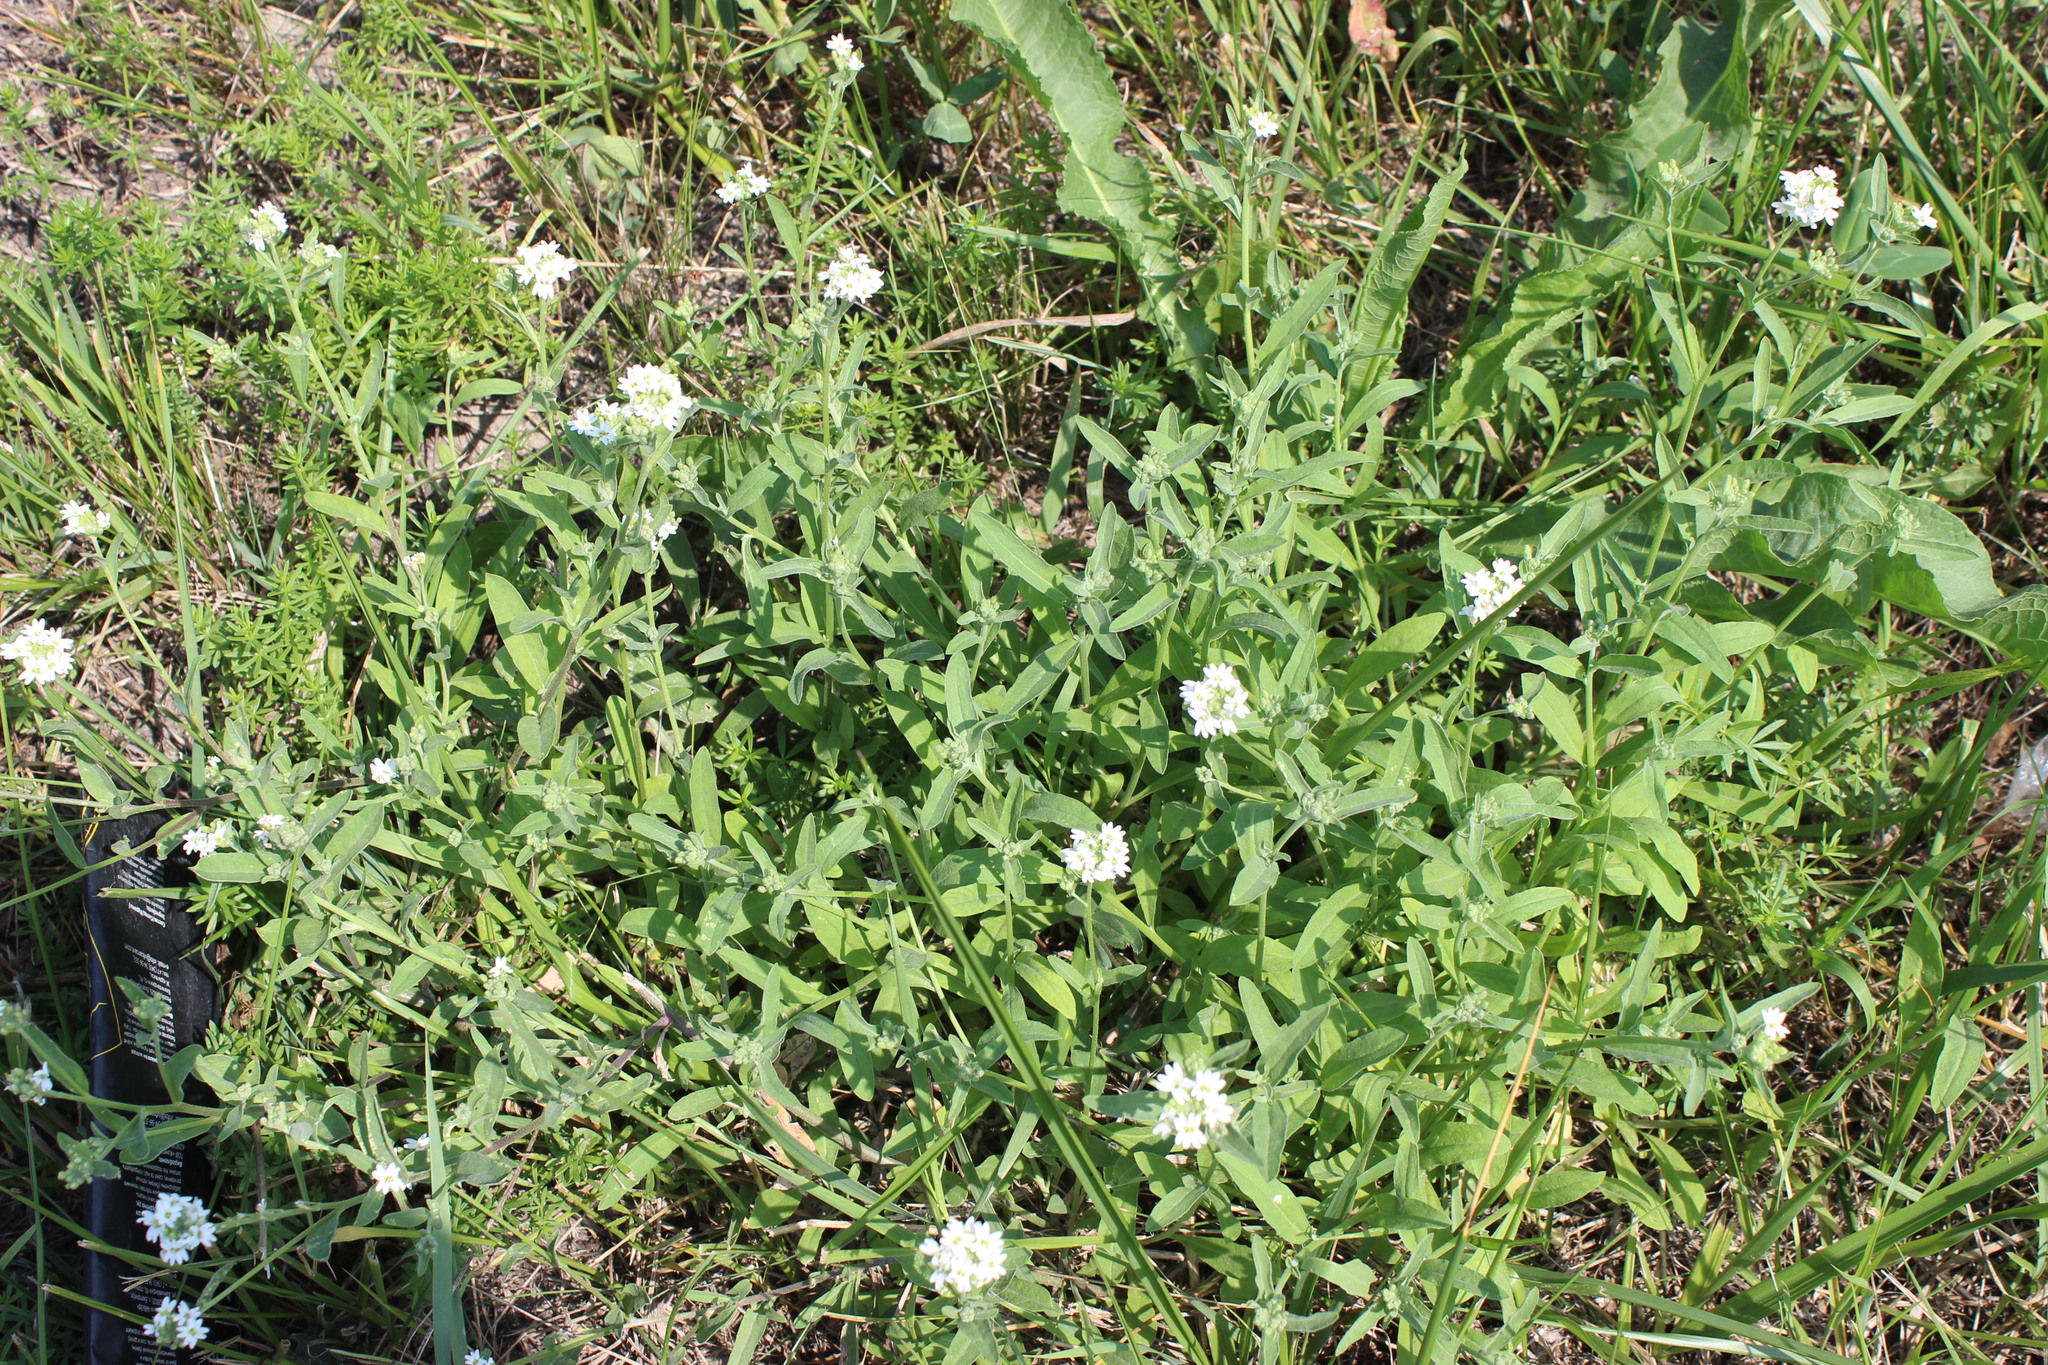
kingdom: Plantae
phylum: Tracheophyta
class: Magnoliopsida
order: Brassicales
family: Brassicaceae
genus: Berteroa
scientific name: Berteroa incana
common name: Hoary alison
